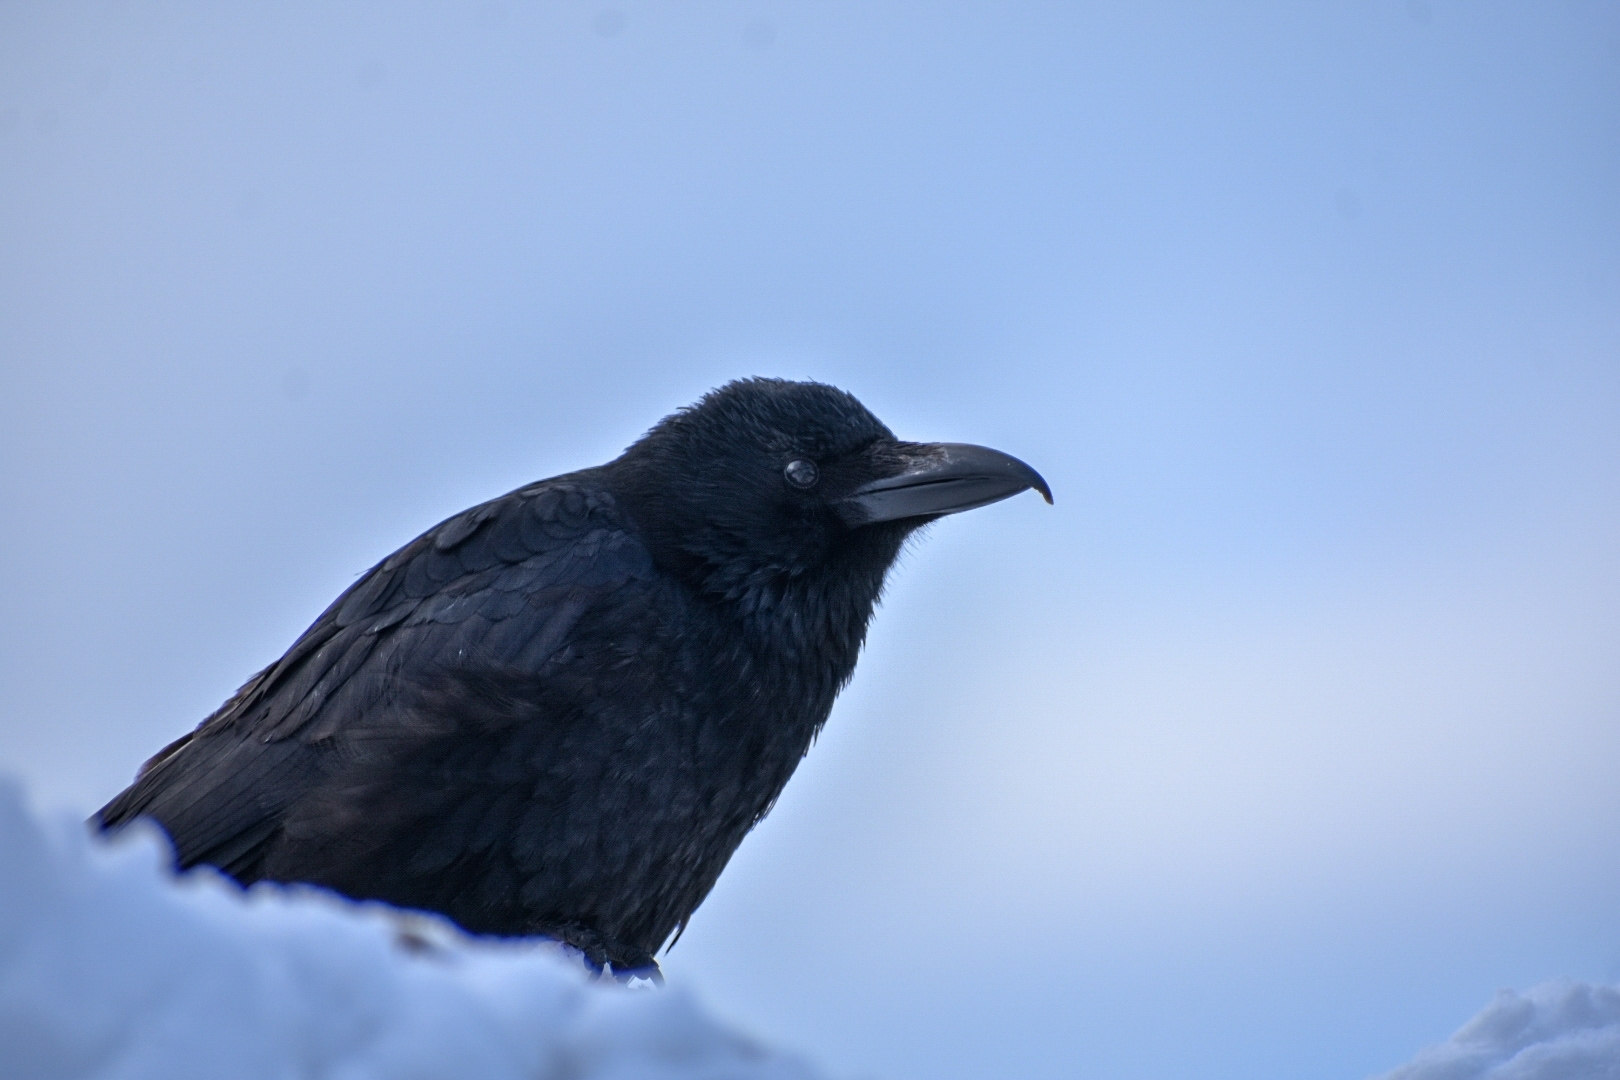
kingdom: Animalia
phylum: Chordata
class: Aves
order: Passeriformes
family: Corvidae
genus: Corvus
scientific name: Corvus corone
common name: Carrion crow
